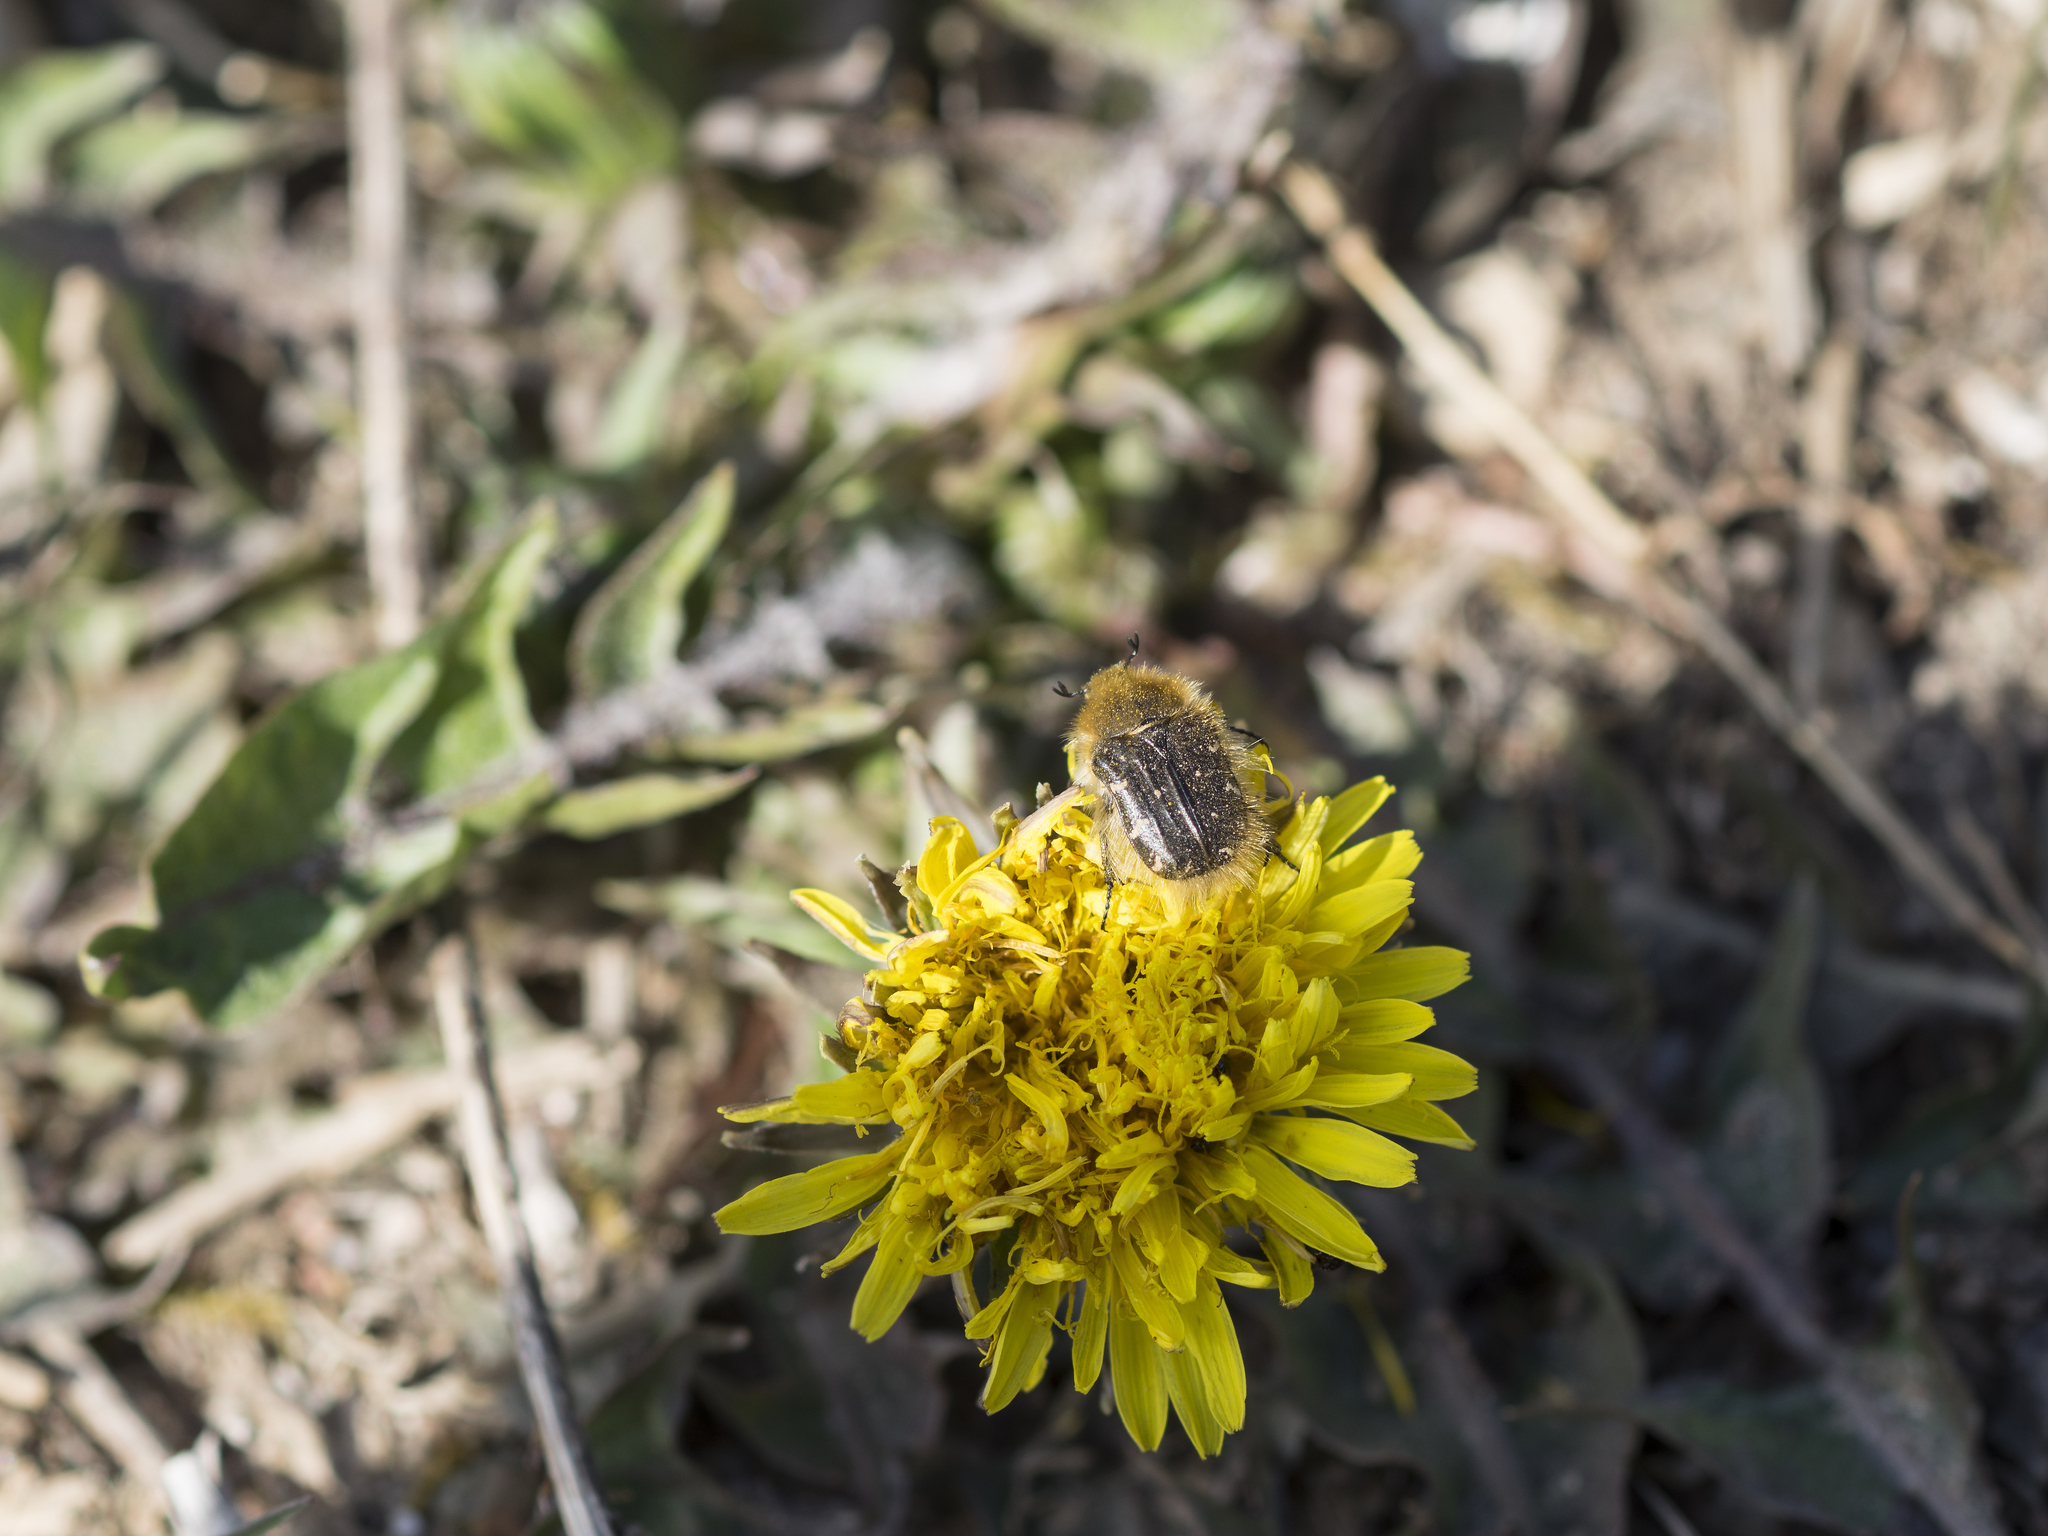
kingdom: Animalia
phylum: Arthropoda
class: Insecta
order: Coleoptera
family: Scarabaeidae
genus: Tropinota
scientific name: Tropinota hirta
